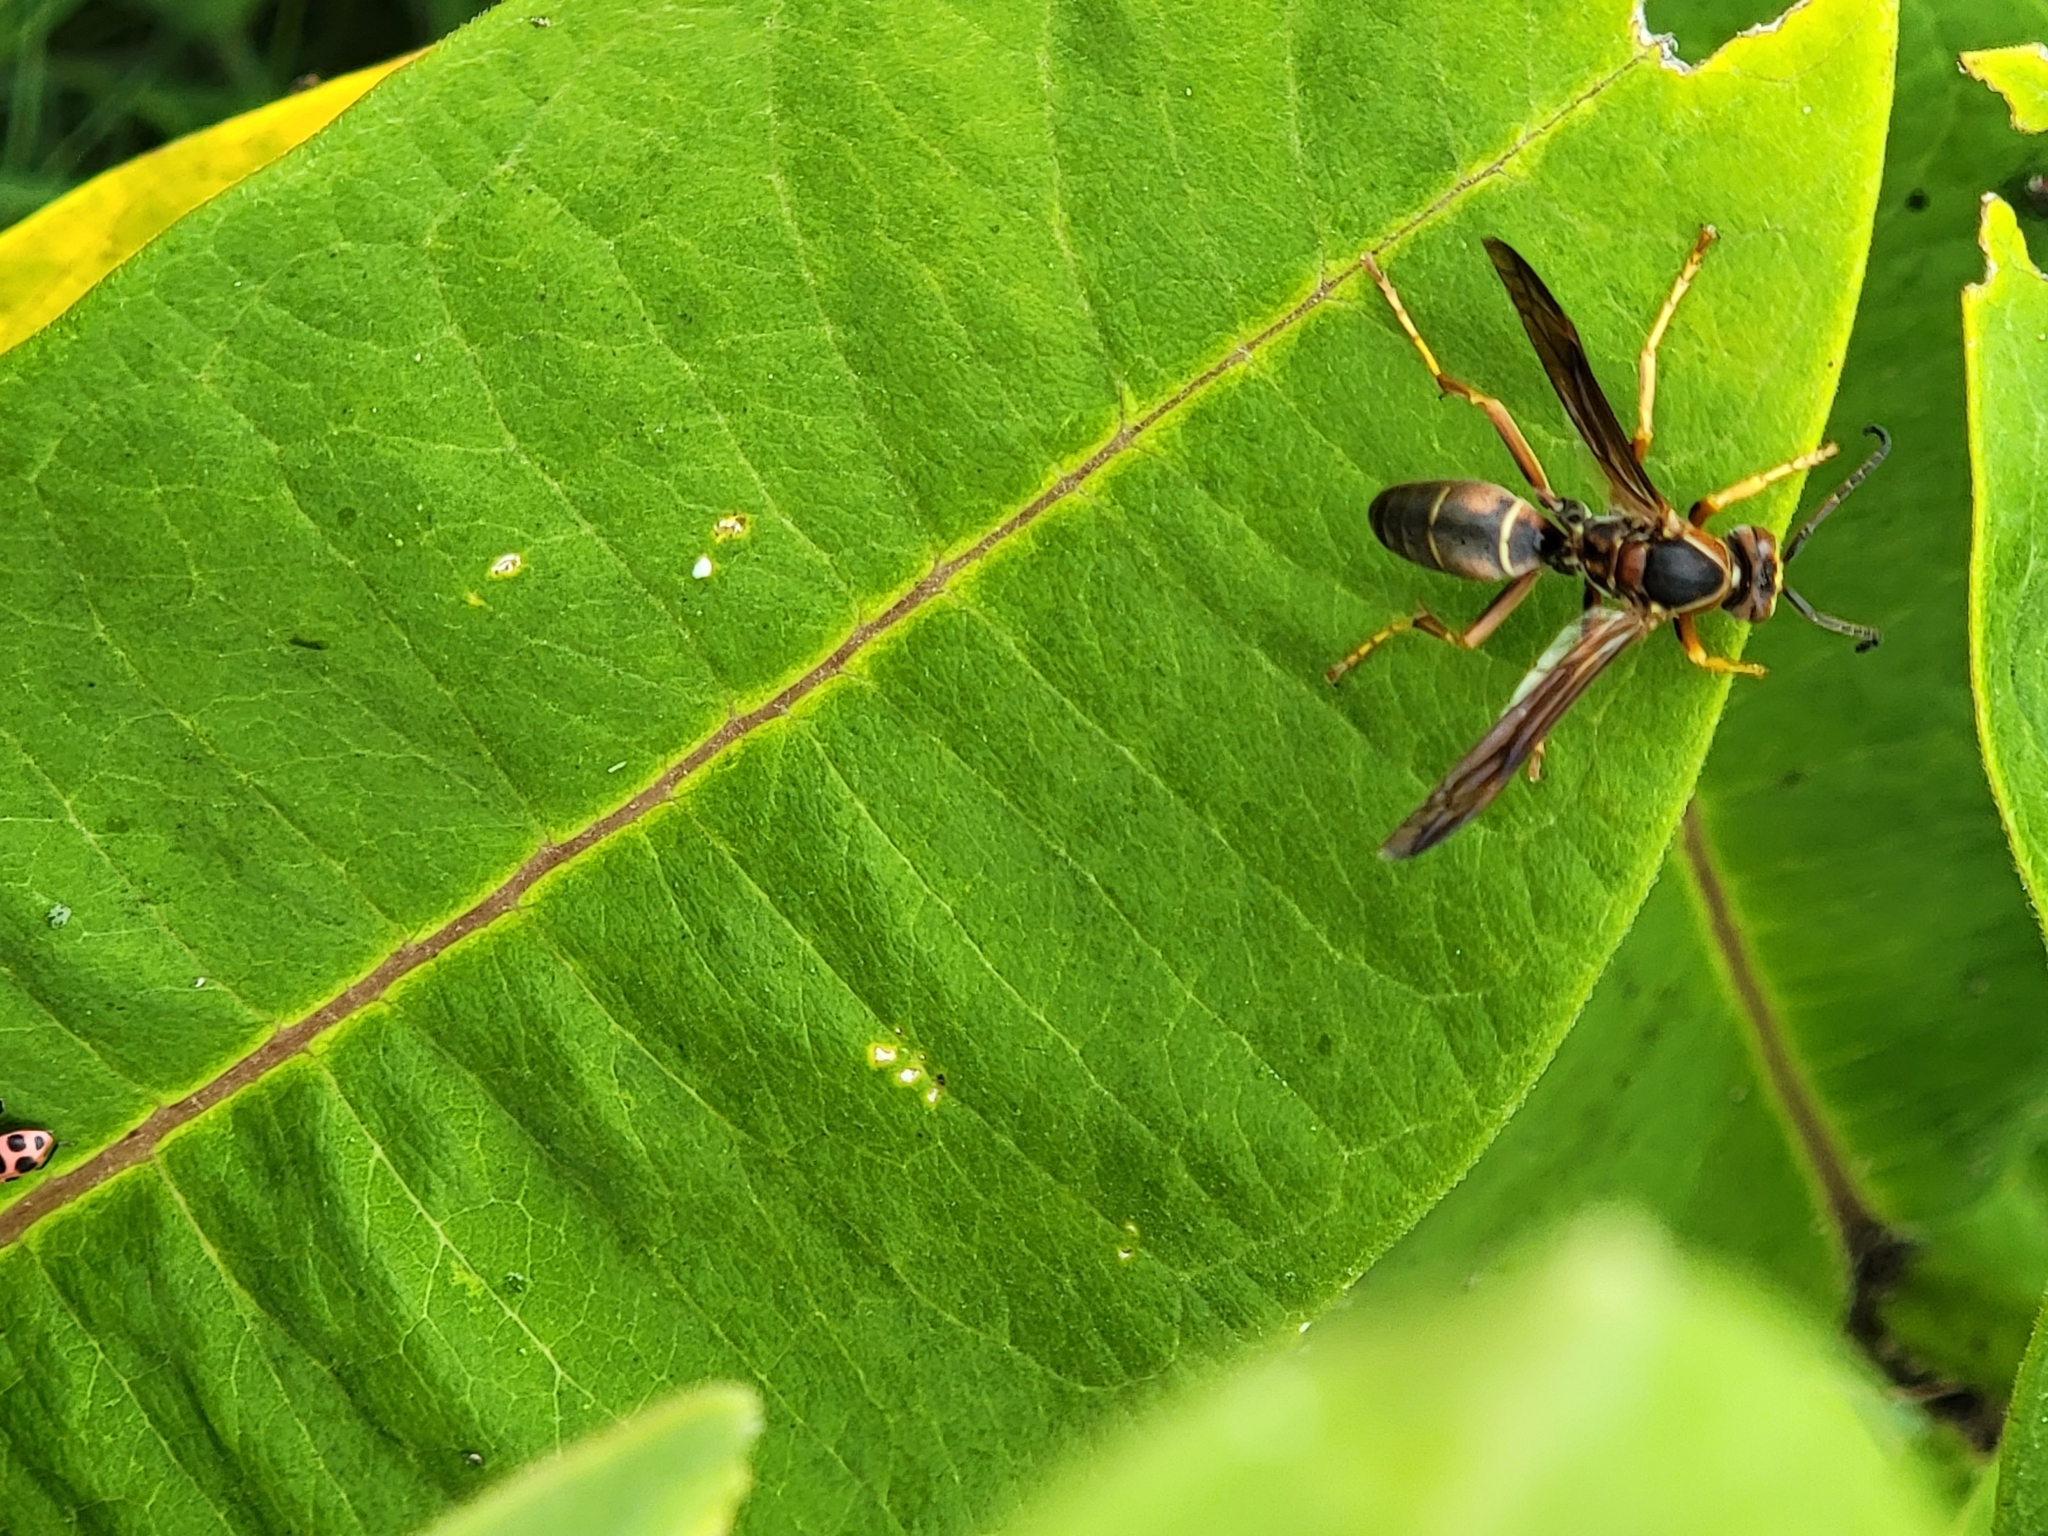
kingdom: Animalia
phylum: Arthropoda
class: Insecta
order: Hymenoptera
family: Eumenidae
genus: Polistes
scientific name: Polistes fuscatus
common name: Dark paper wasp
